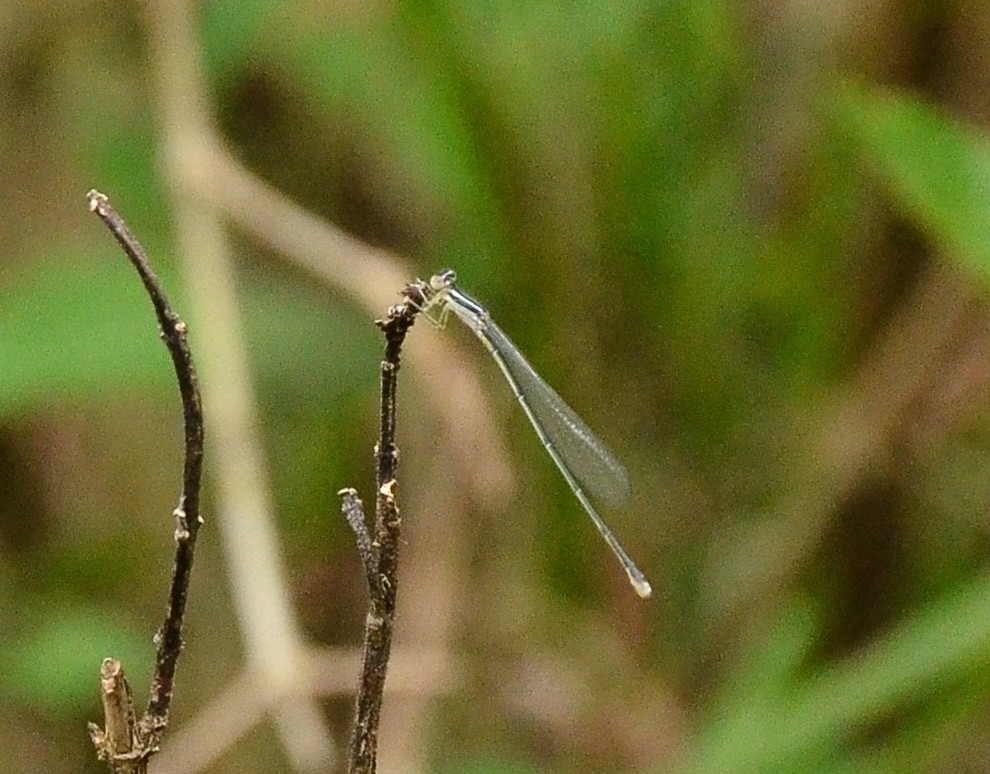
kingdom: Animalia
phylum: Arthropoda
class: Insecta
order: Odonata
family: Coenagrionidae
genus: Aciagrion
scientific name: Aciagrion occidentale
